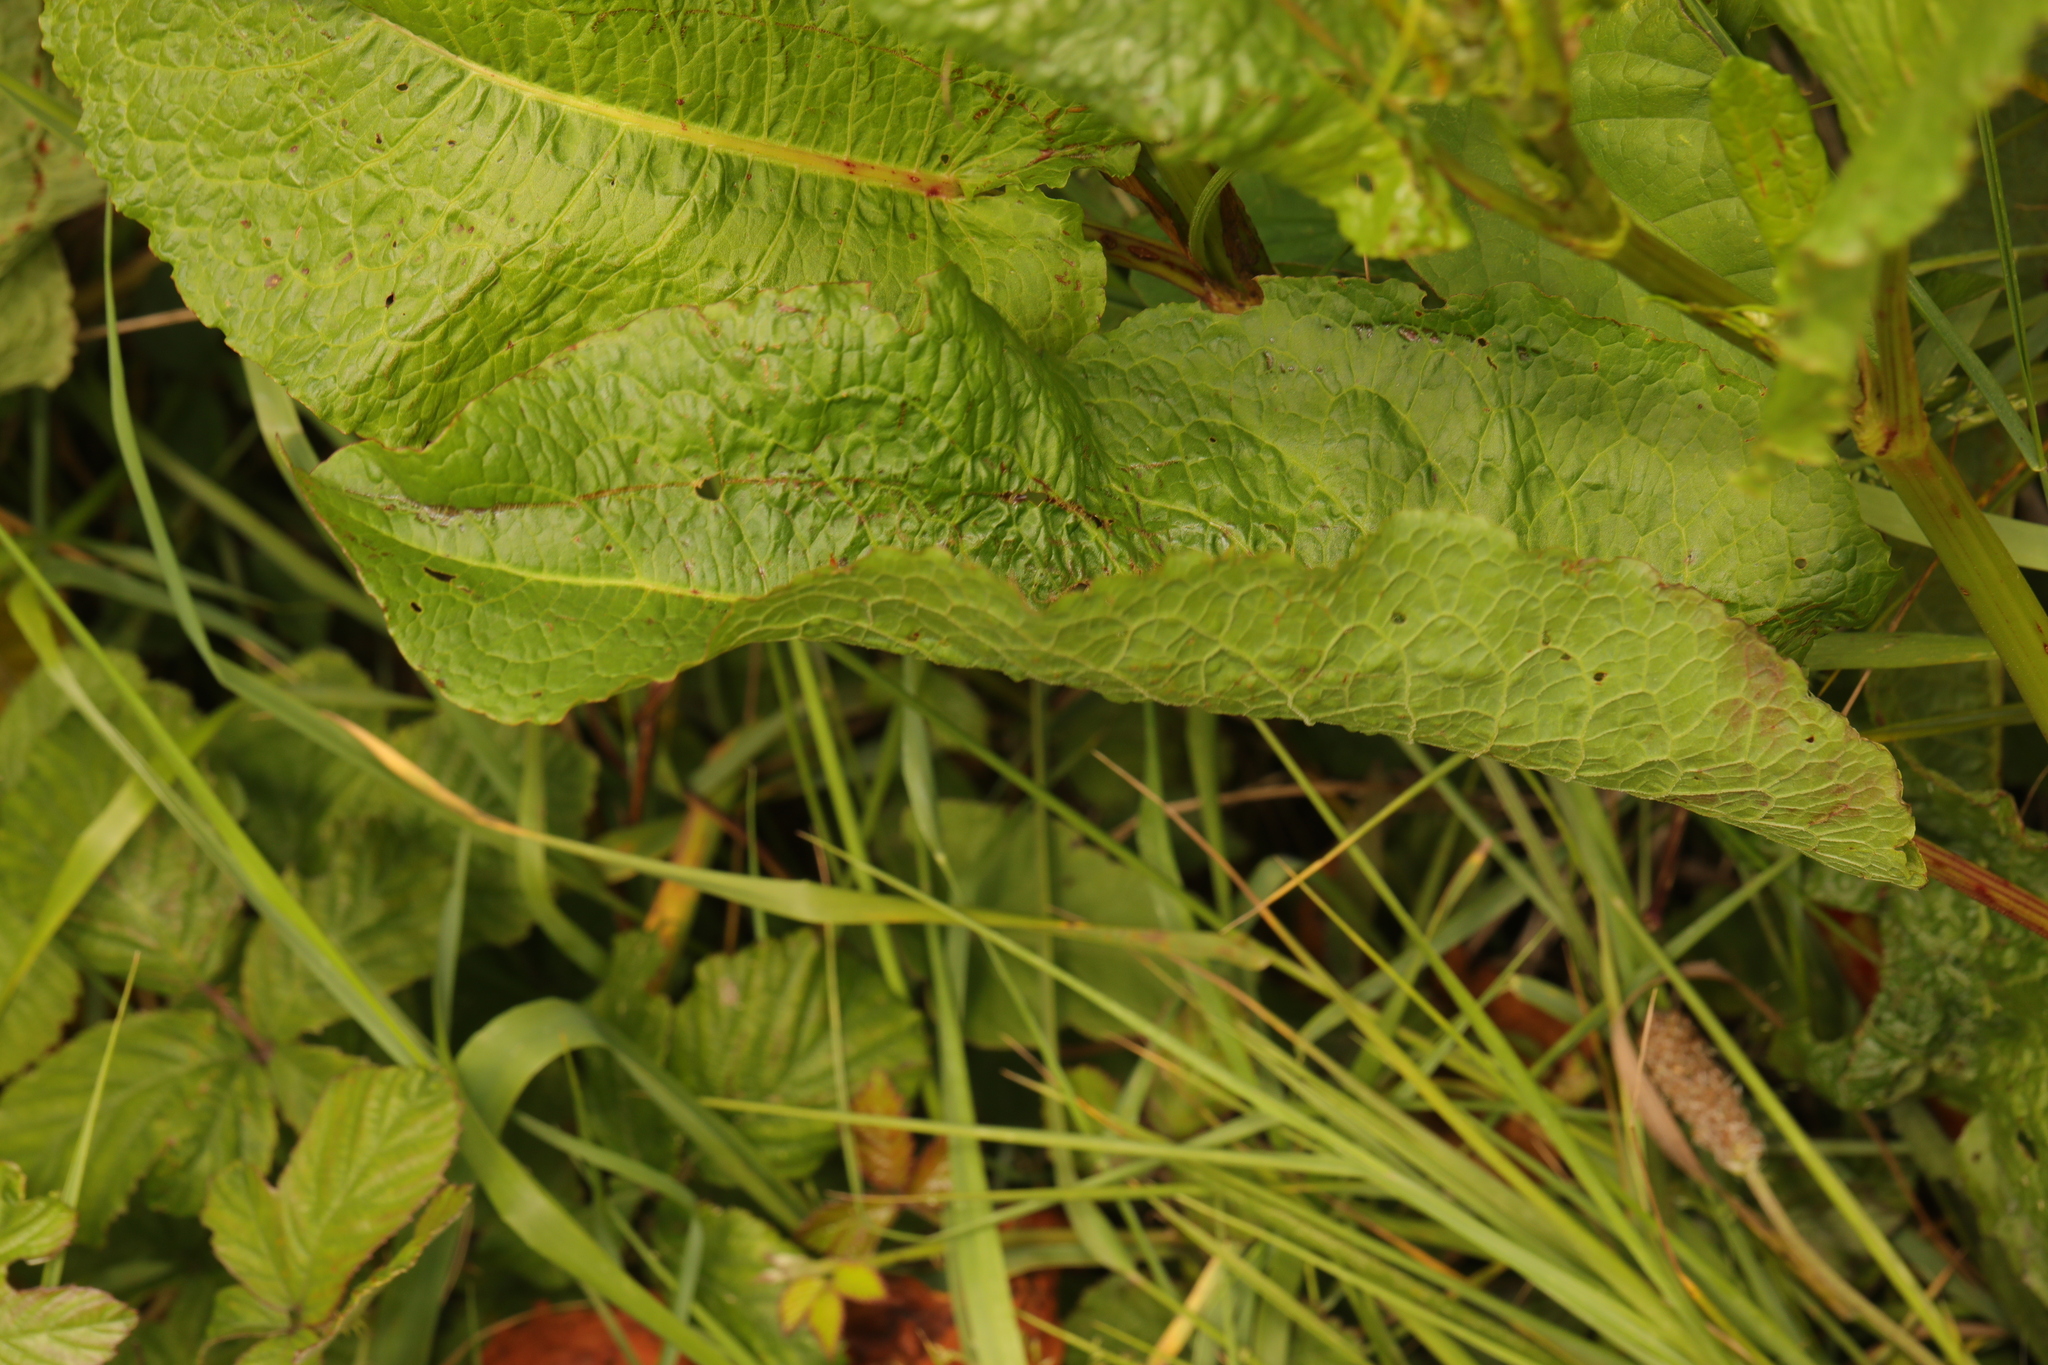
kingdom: Plantae
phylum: Tracheophyta
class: Magnoliopsida
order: Caryophyllales
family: Polygonaceae
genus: Rumex
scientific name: Rumex obtusifolius
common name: Bitter dock
